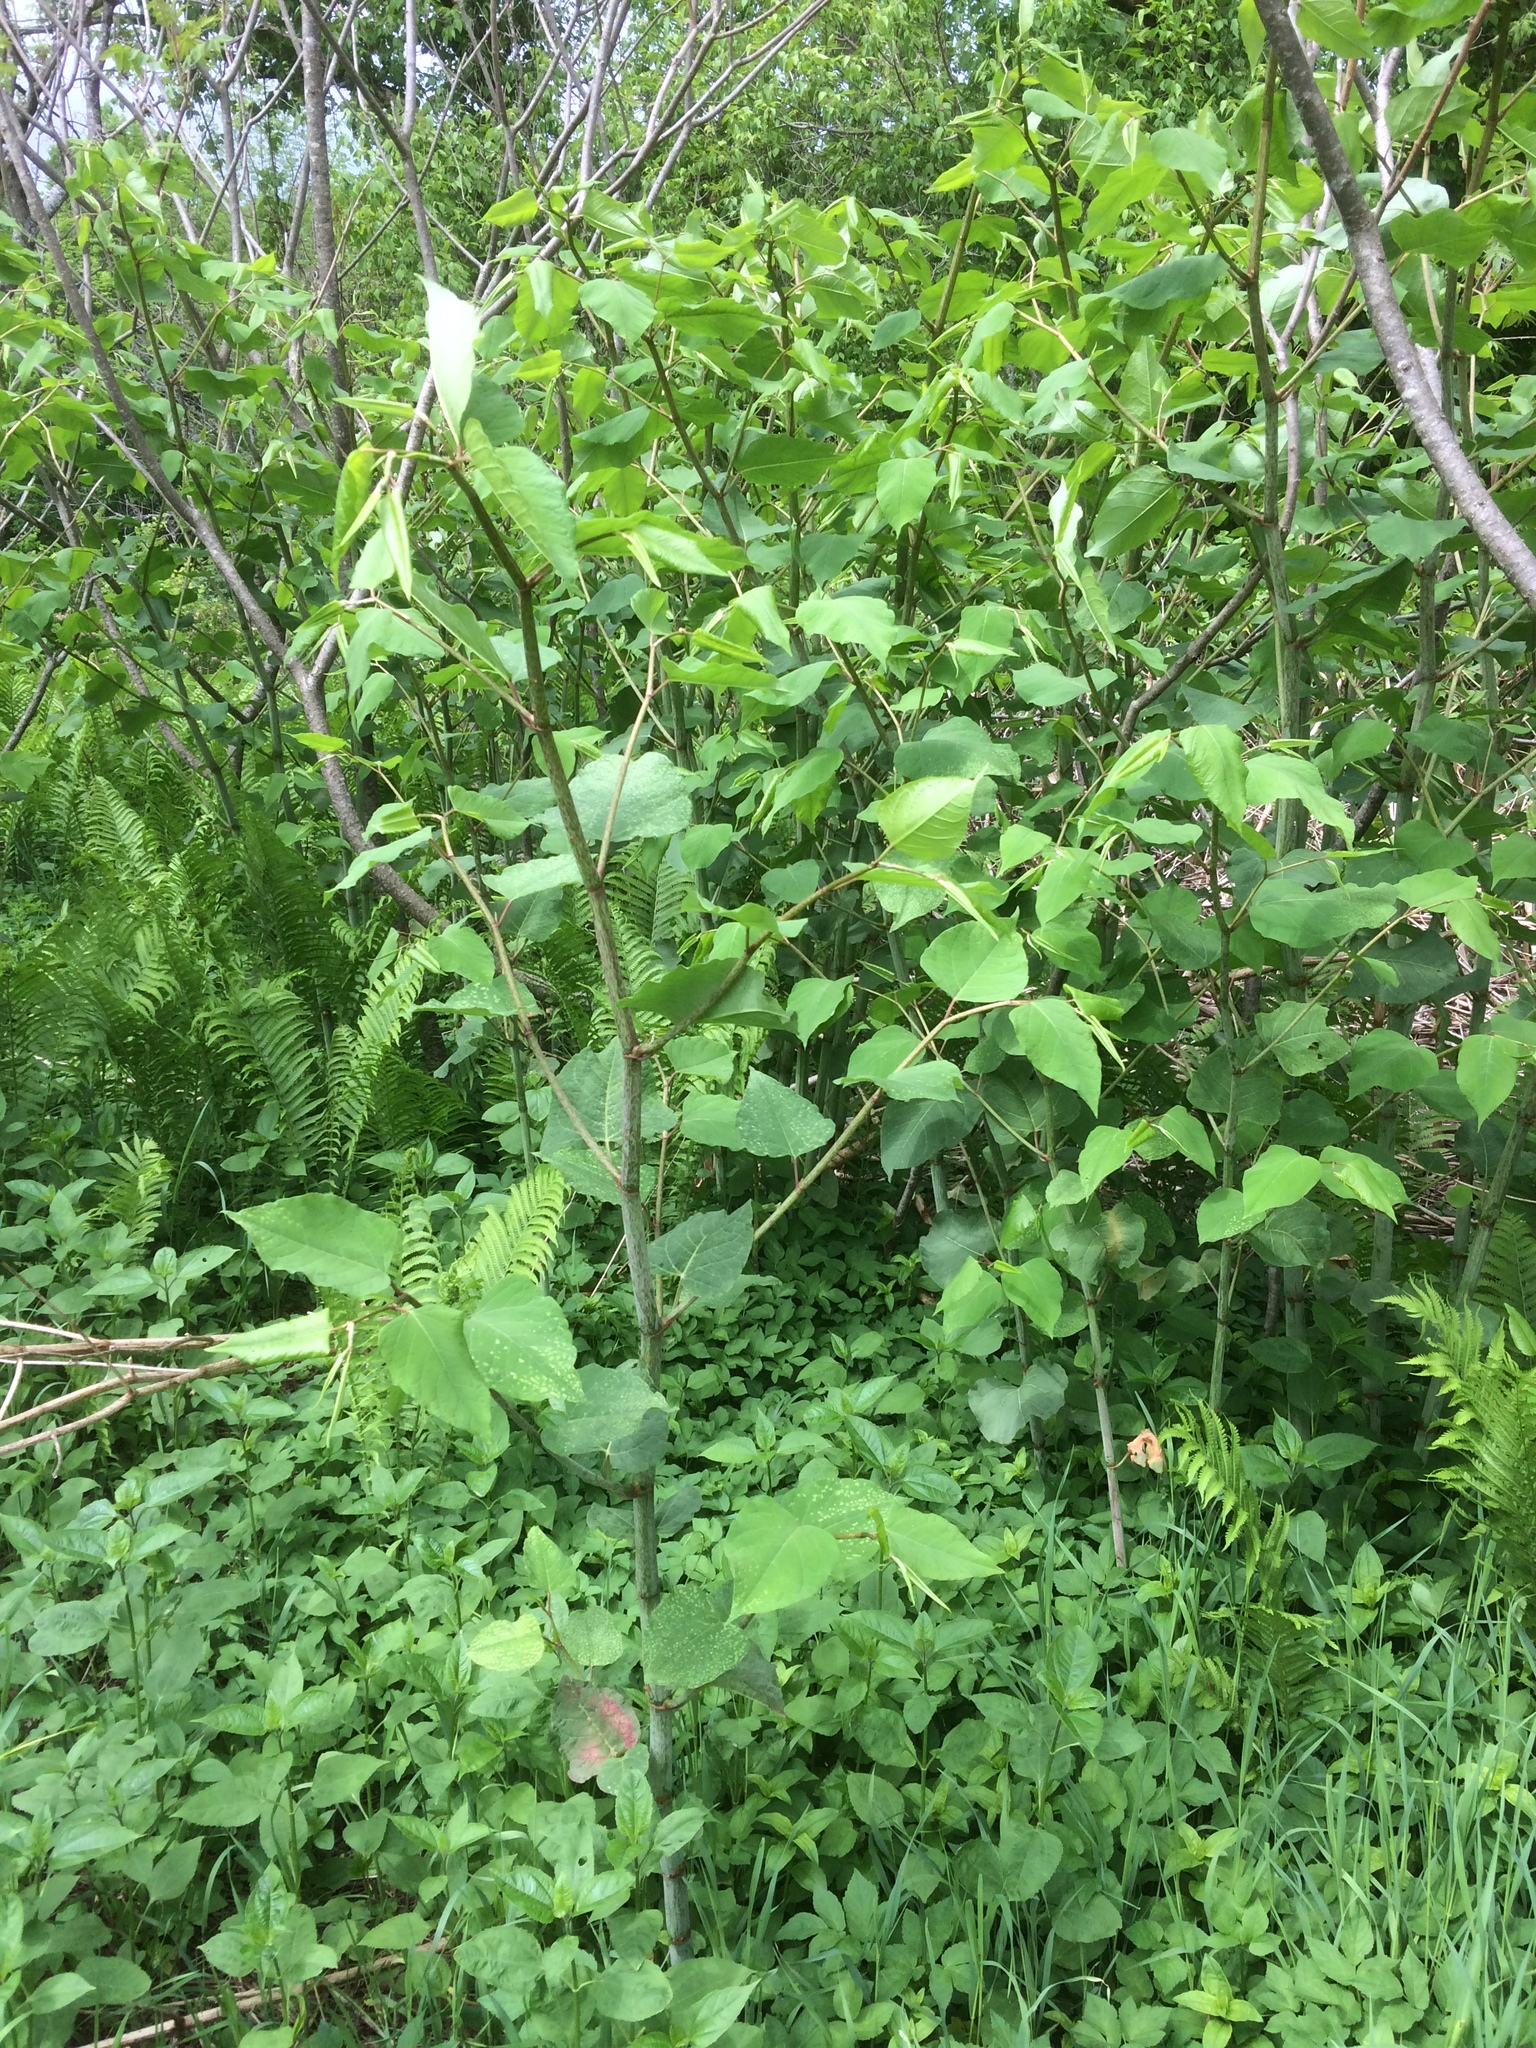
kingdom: Plantae
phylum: Tracheophyta
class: Magnoliopsida
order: Caryophyllales
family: Polygonaceae
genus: Reynoutria
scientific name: Reynoutria japonica
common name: Japanese knotweed
